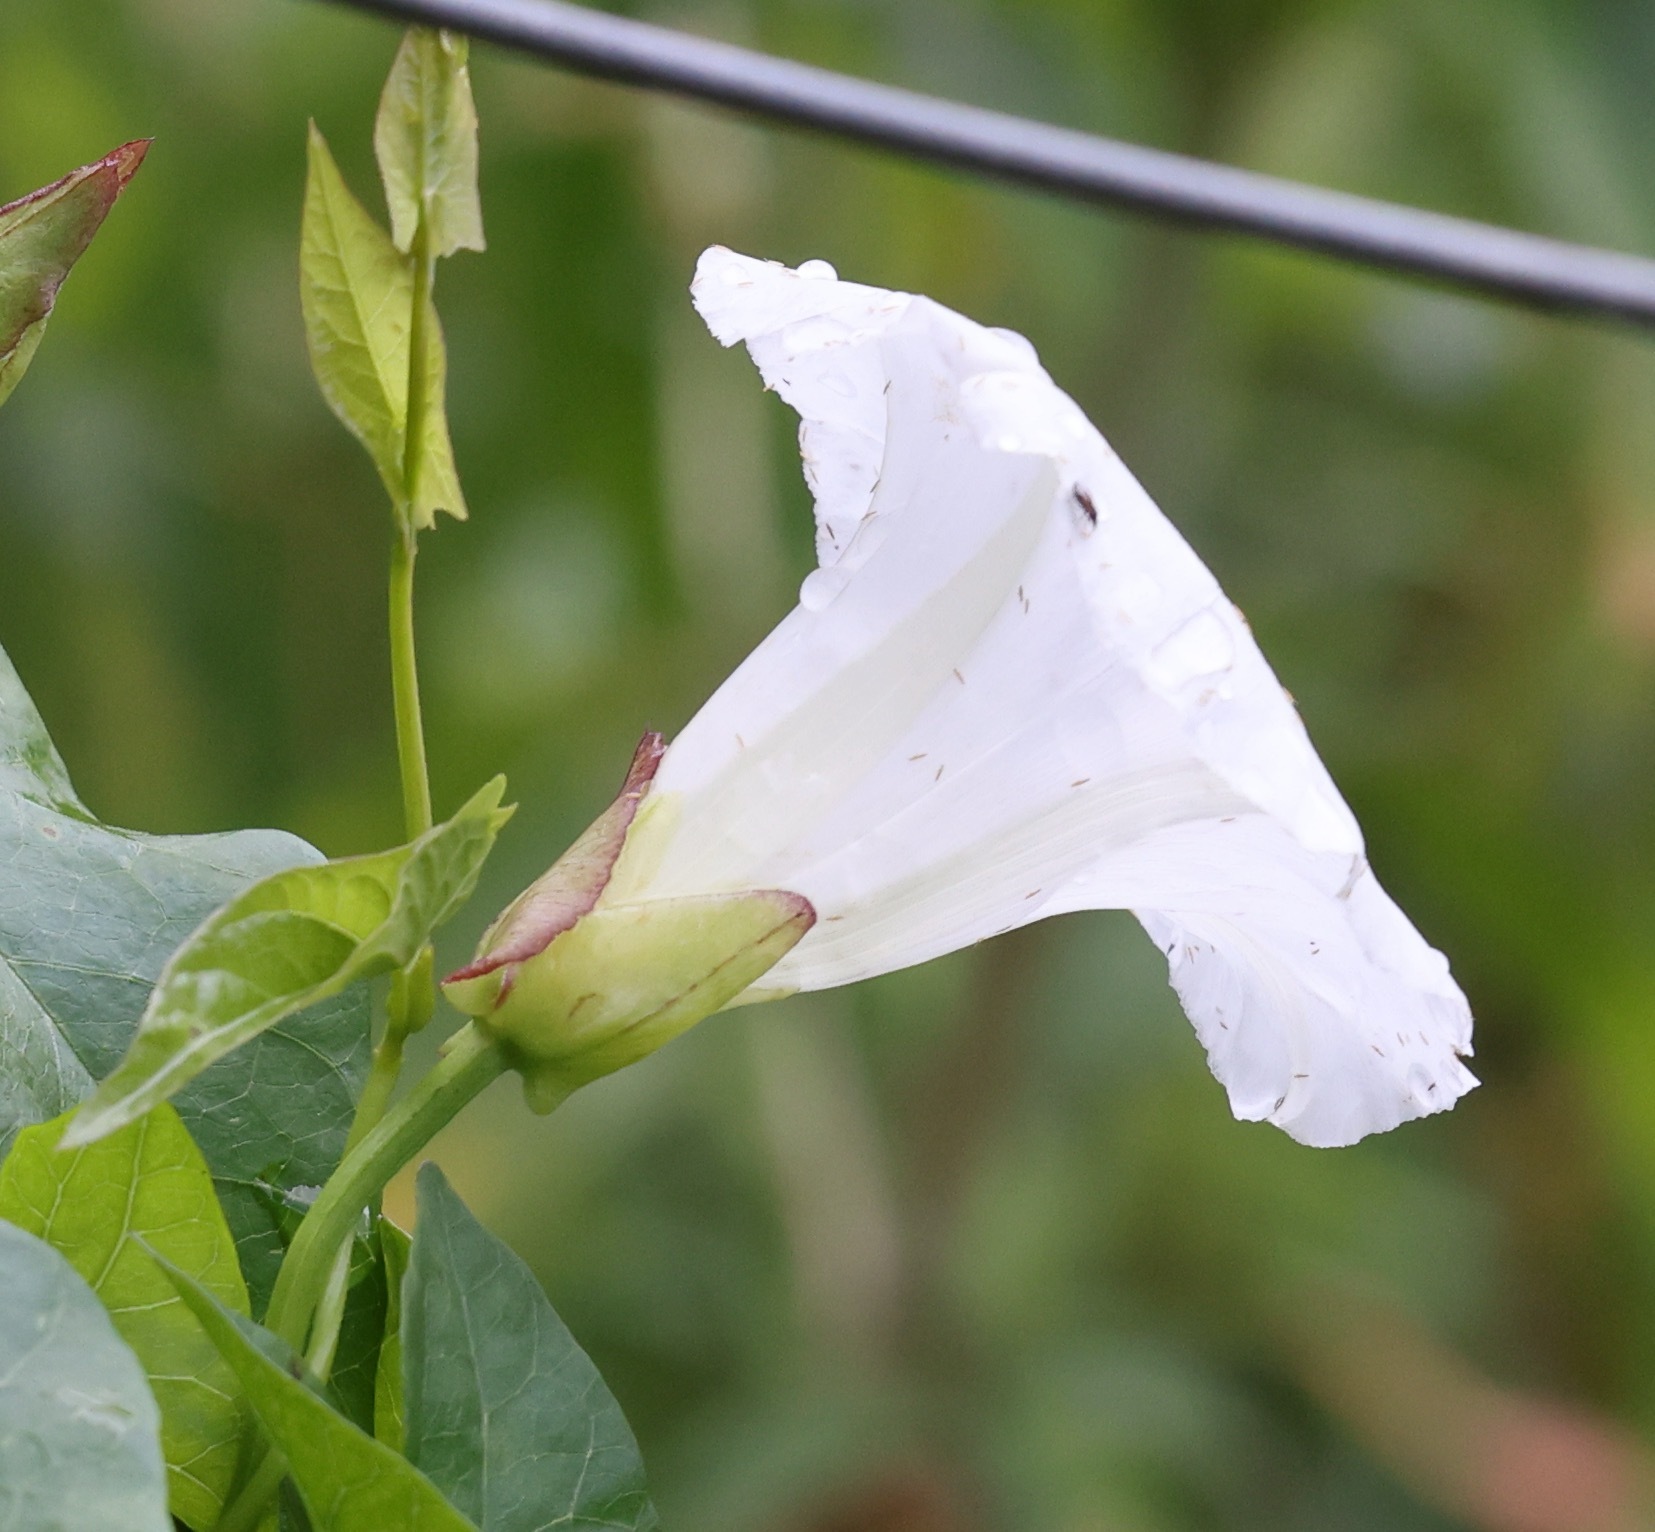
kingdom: Plantae
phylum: Tracheophyta
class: Magnoliopsida
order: Solanales
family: Convolvulaceae
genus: Calystegia
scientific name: Calystegia sepium
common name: Hedge bindweed
